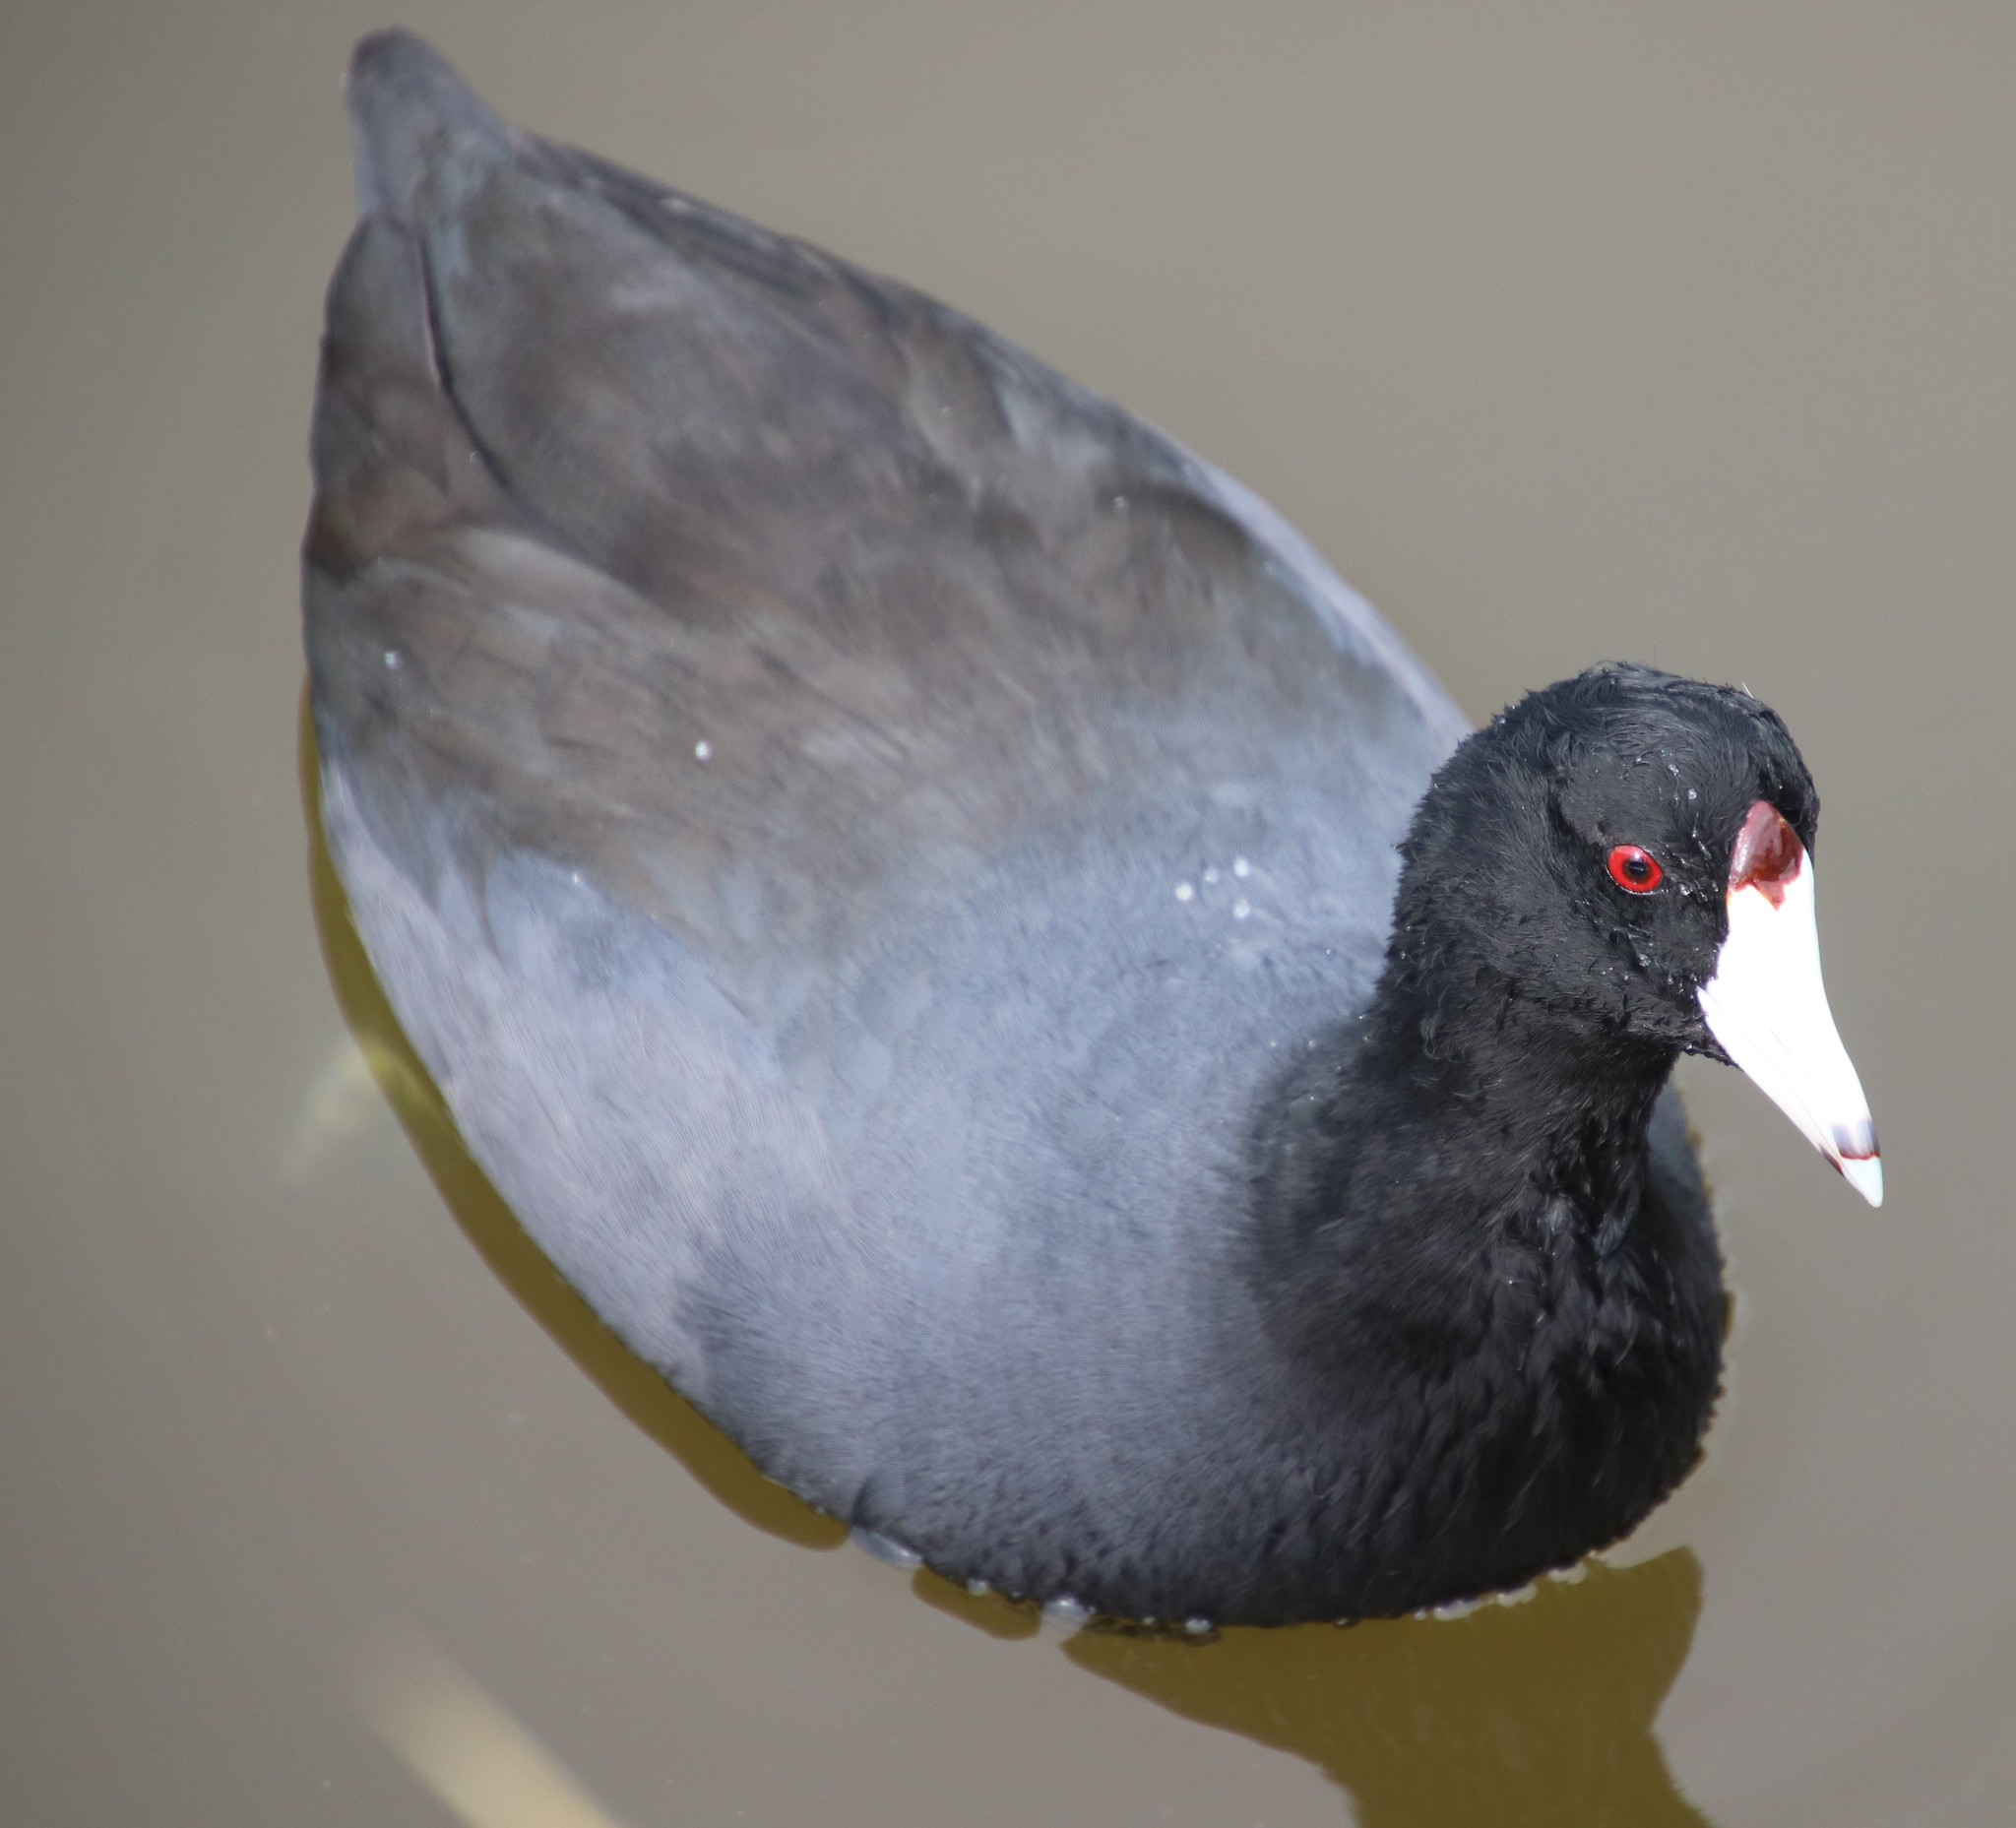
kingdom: Animalia
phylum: Chordata
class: Aves
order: Gruiformes
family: Rallidae
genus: Fulica
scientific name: Fulica americana
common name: American coot
